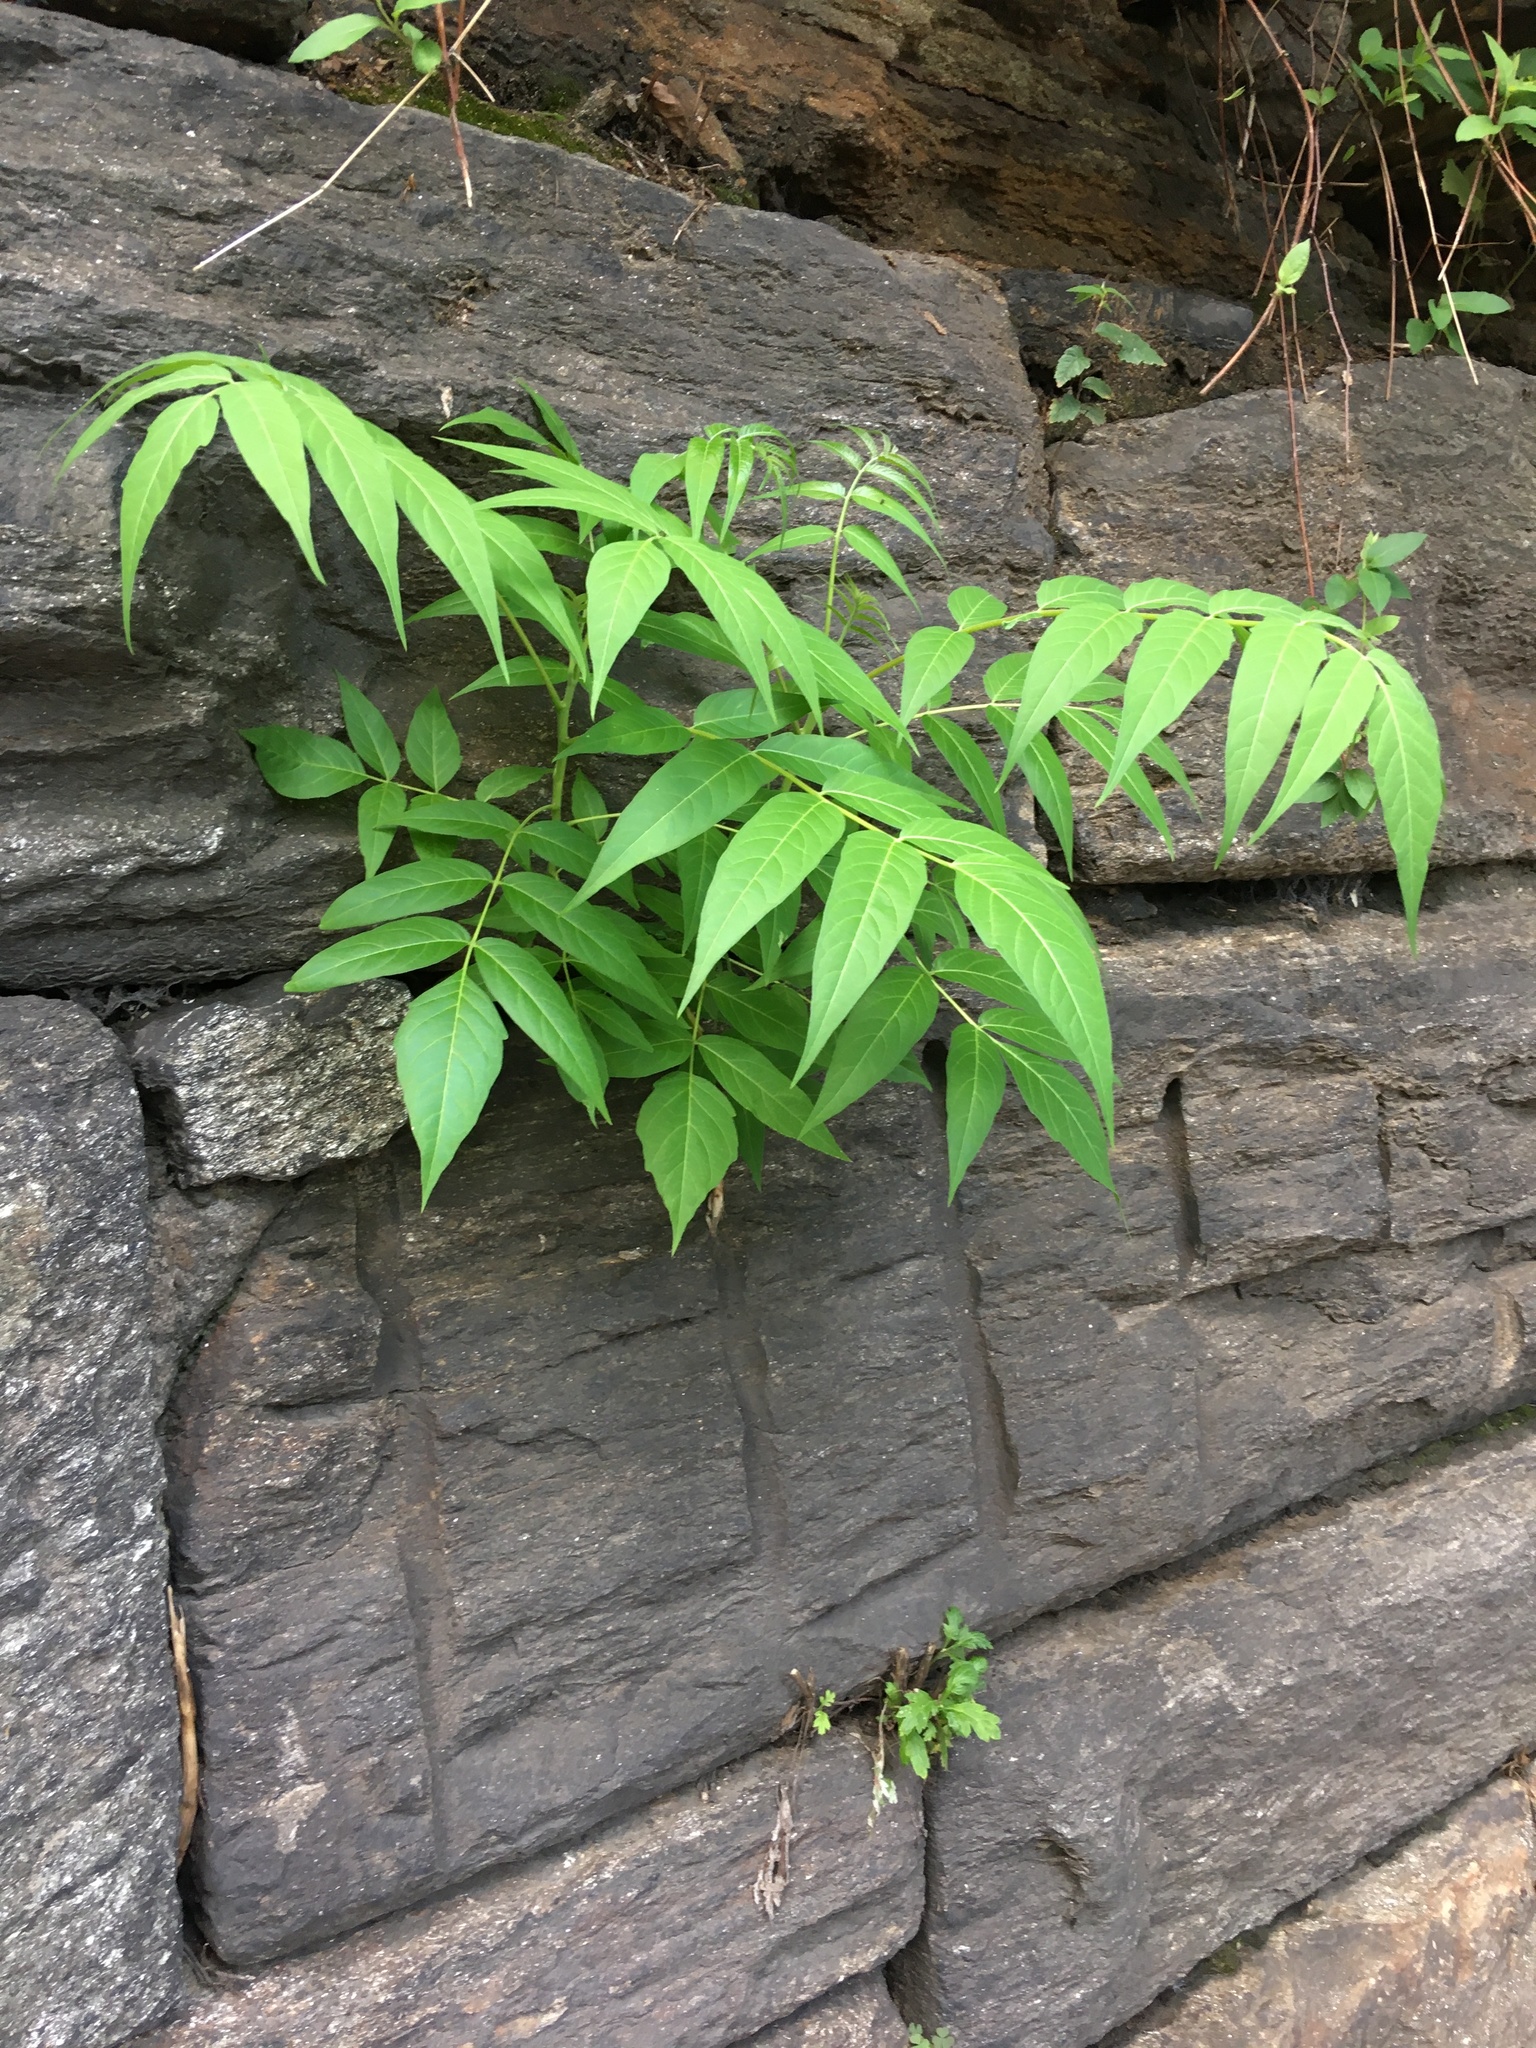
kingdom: Plantae
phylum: Tracheophyta
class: Magnoliopsida
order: Sapindales
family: Simaroubaceae
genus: Ailanthus
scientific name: Ailanthus altissima
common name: Tree-of-heaven
